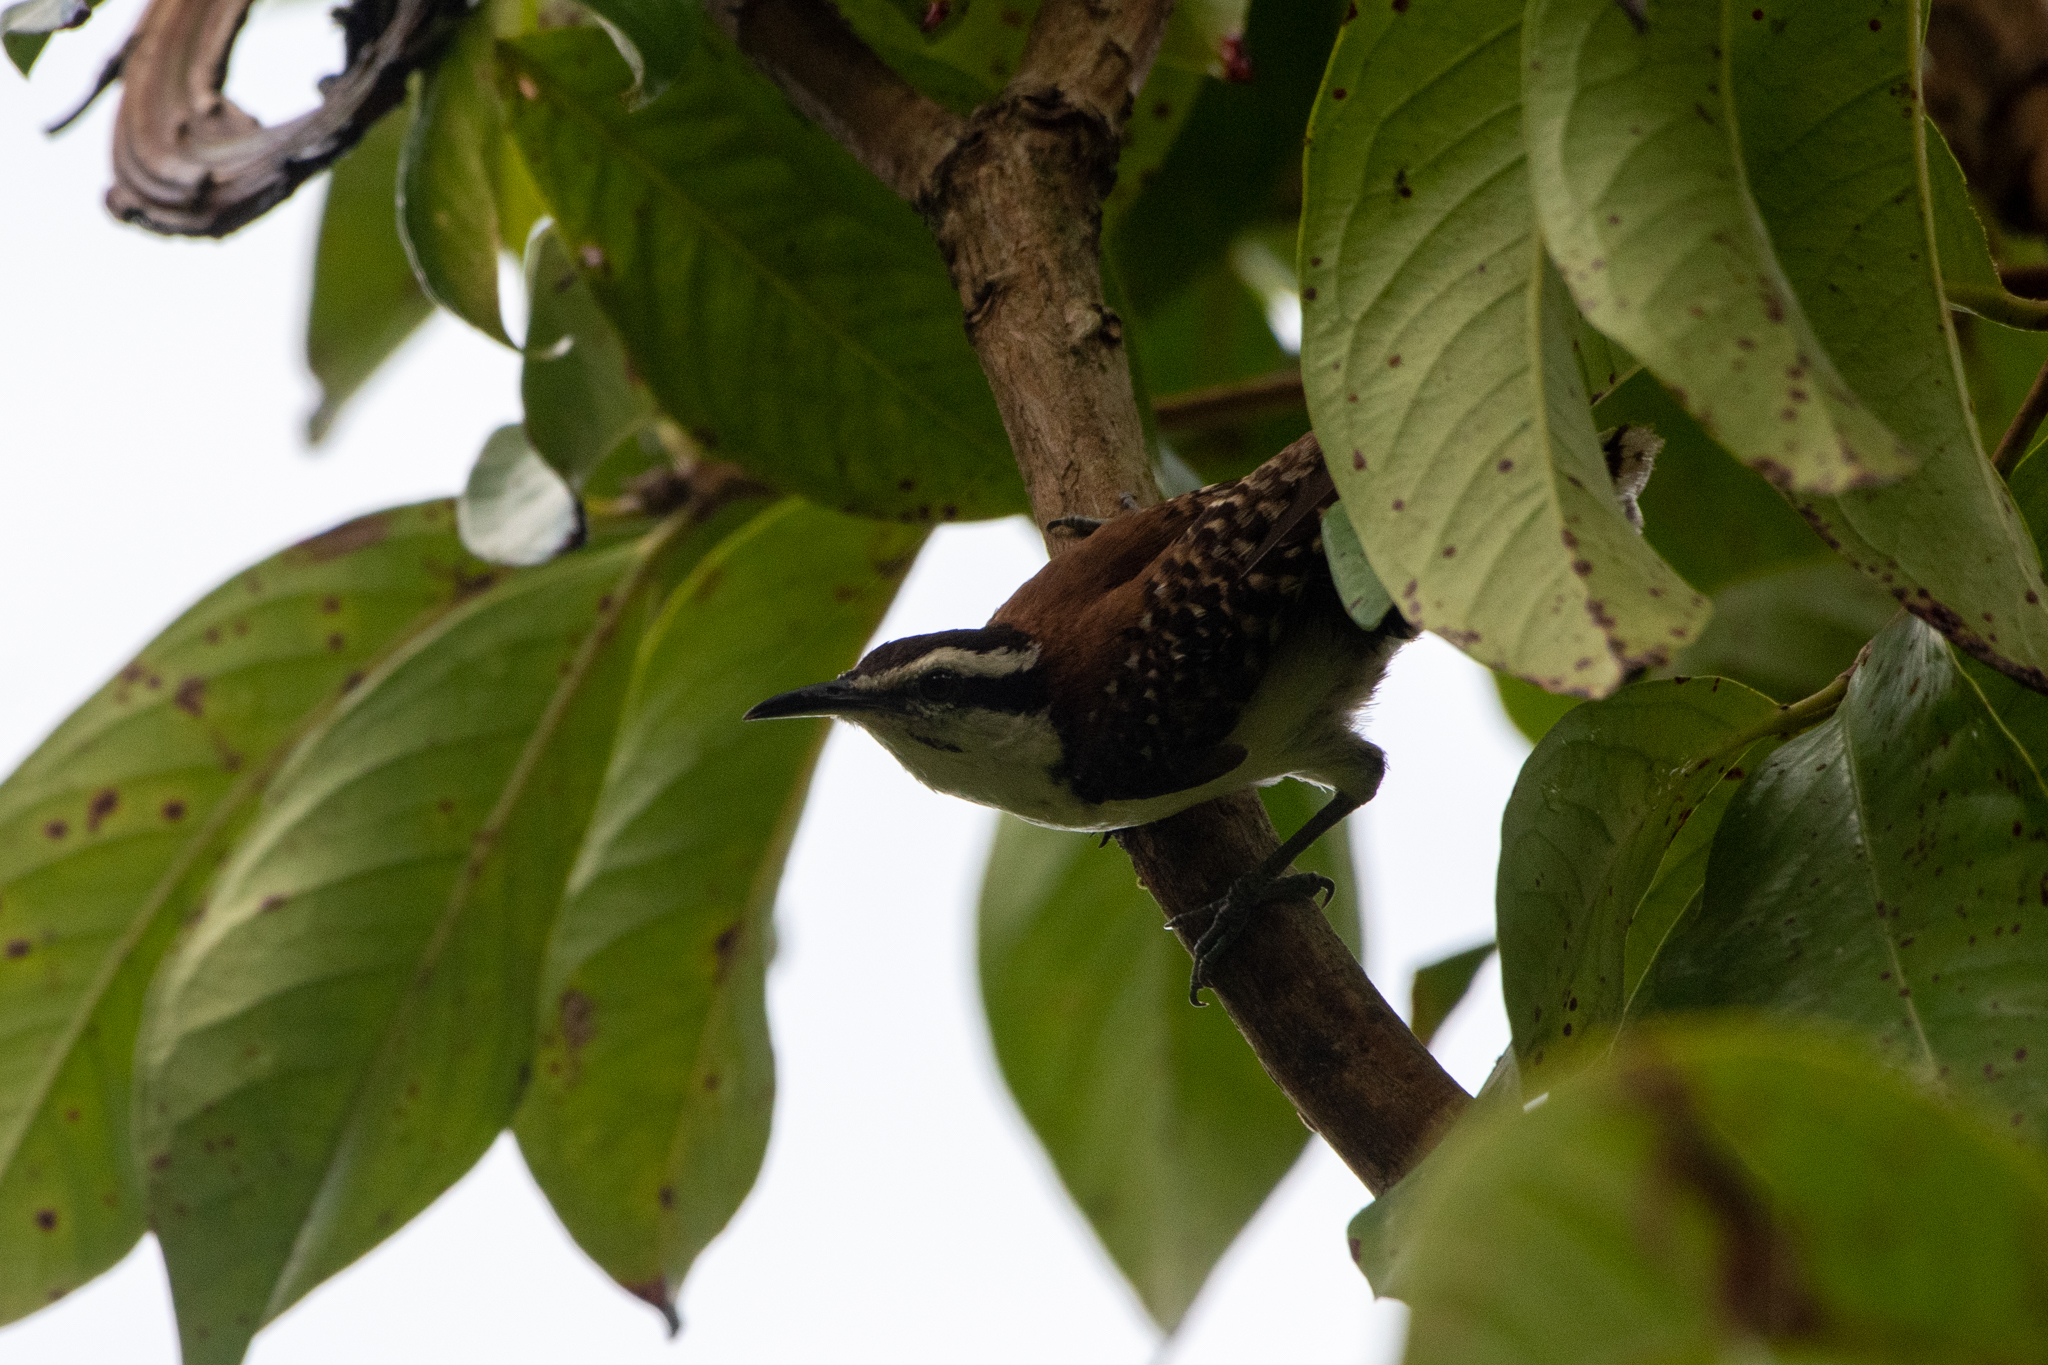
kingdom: Animalia
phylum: Chordata
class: Aves
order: Passeriformes
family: Troglodytidae
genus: Campylorhynchus
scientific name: Campylorhynchus rufinucha
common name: Rufous-naped wren
